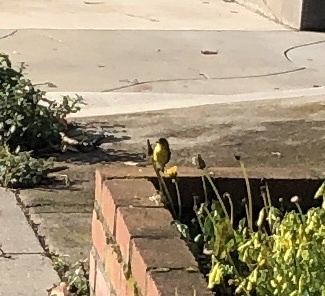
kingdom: Animalia
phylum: Chordata
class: Aves
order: Passeriformes
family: Fringillidae
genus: Spinus
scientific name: Spinus psaltria
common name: Lesser goldfinch
